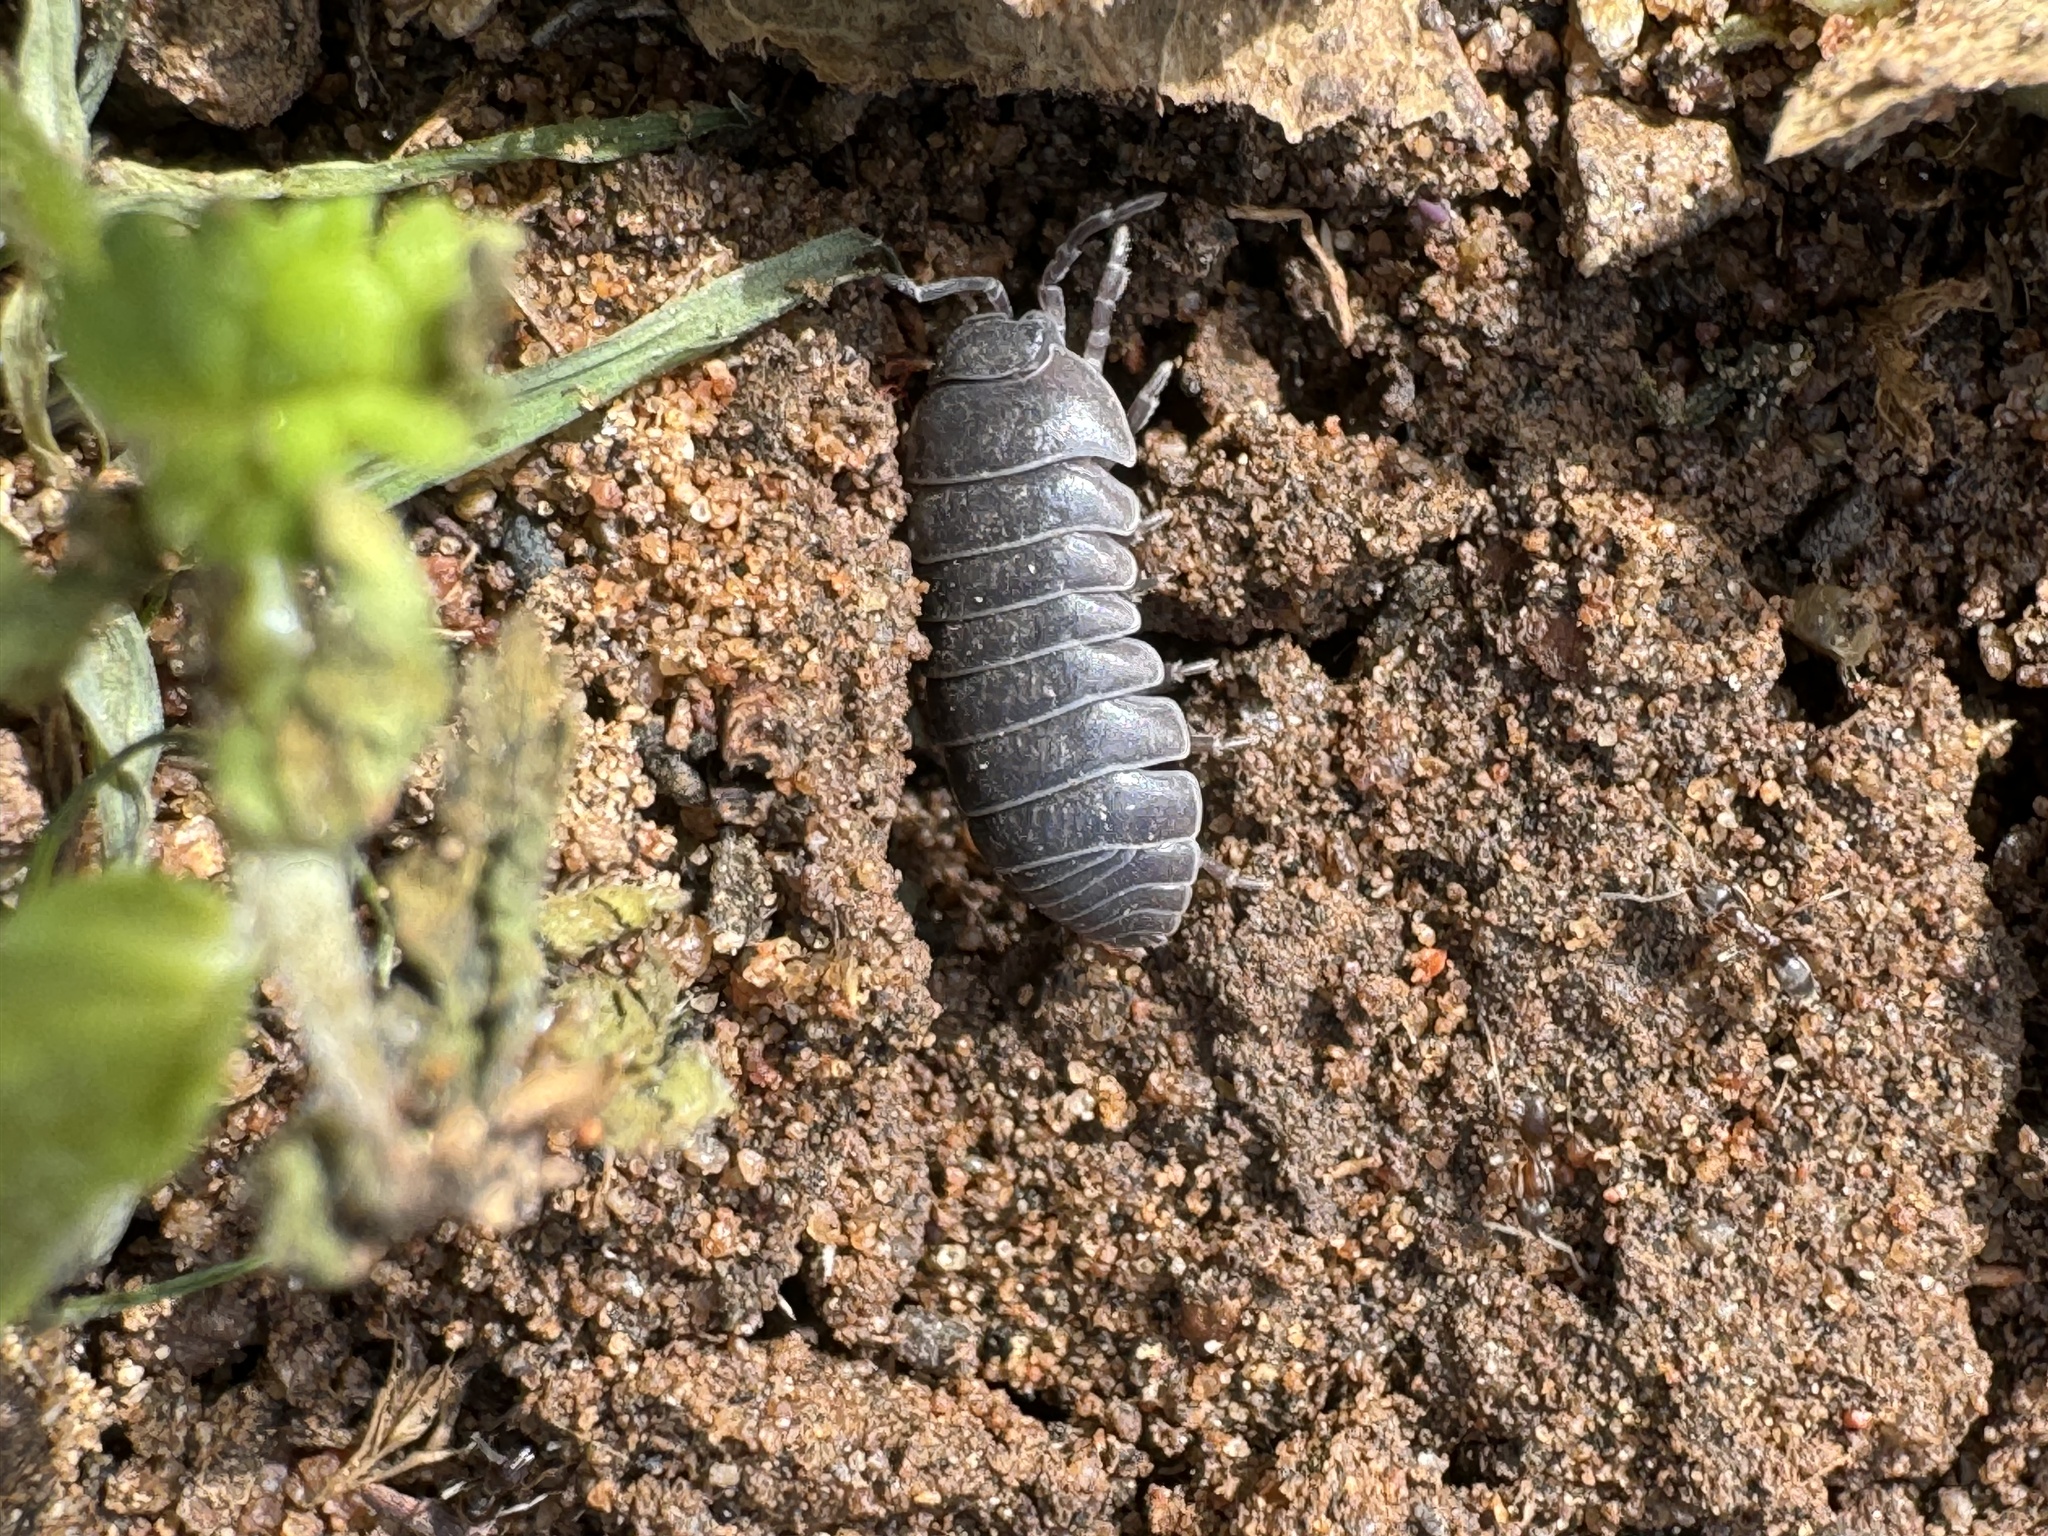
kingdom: Animalia
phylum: Arthropoda
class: Malacostraca
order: Isopoda
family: Armadillidiidae
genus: Armadillidium
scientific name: Armadillidium vulgare
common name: Common pill woodlouse
